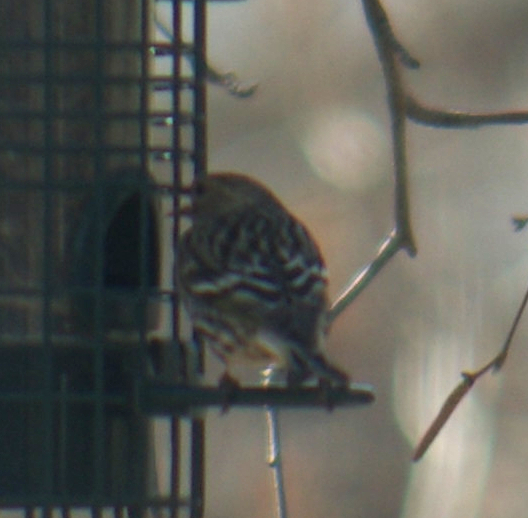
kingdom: Animalia
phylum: Chordata
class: Aves
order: Passeriformes
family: Fringillidae
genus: Spinus
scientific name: Spinus pinus
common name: Pine siskin
